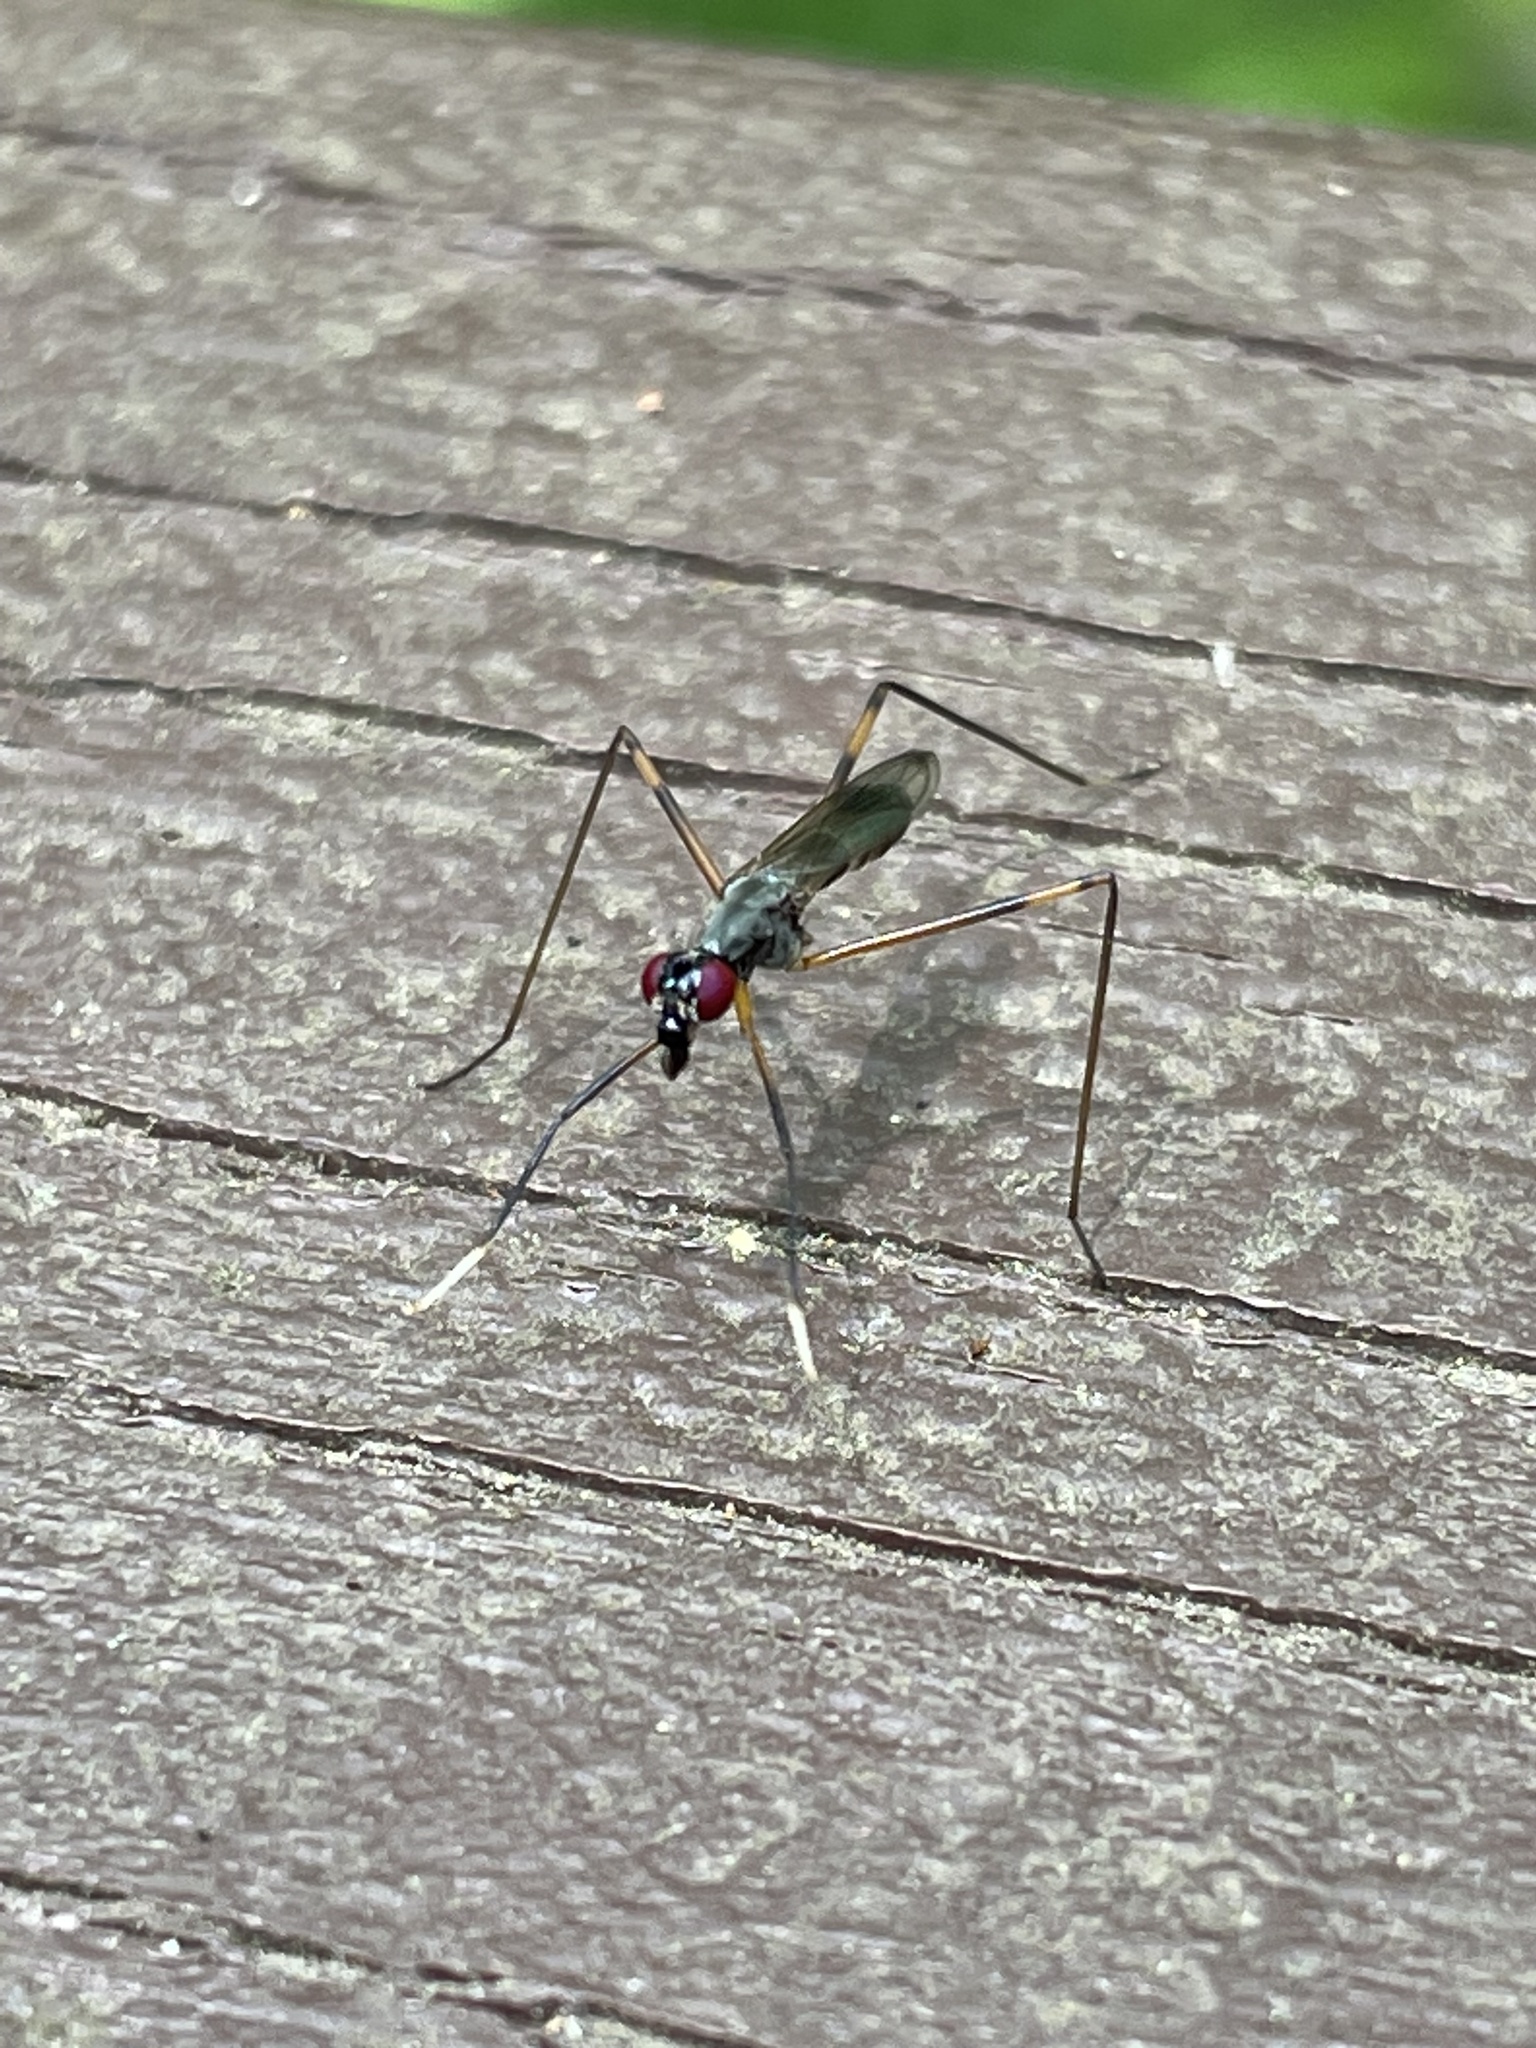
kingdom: Animalia
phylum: Arthropoda
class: Insecta
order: Diptera
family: Micropezidae
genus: Rainieria
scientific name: Rainieria antennaepes
